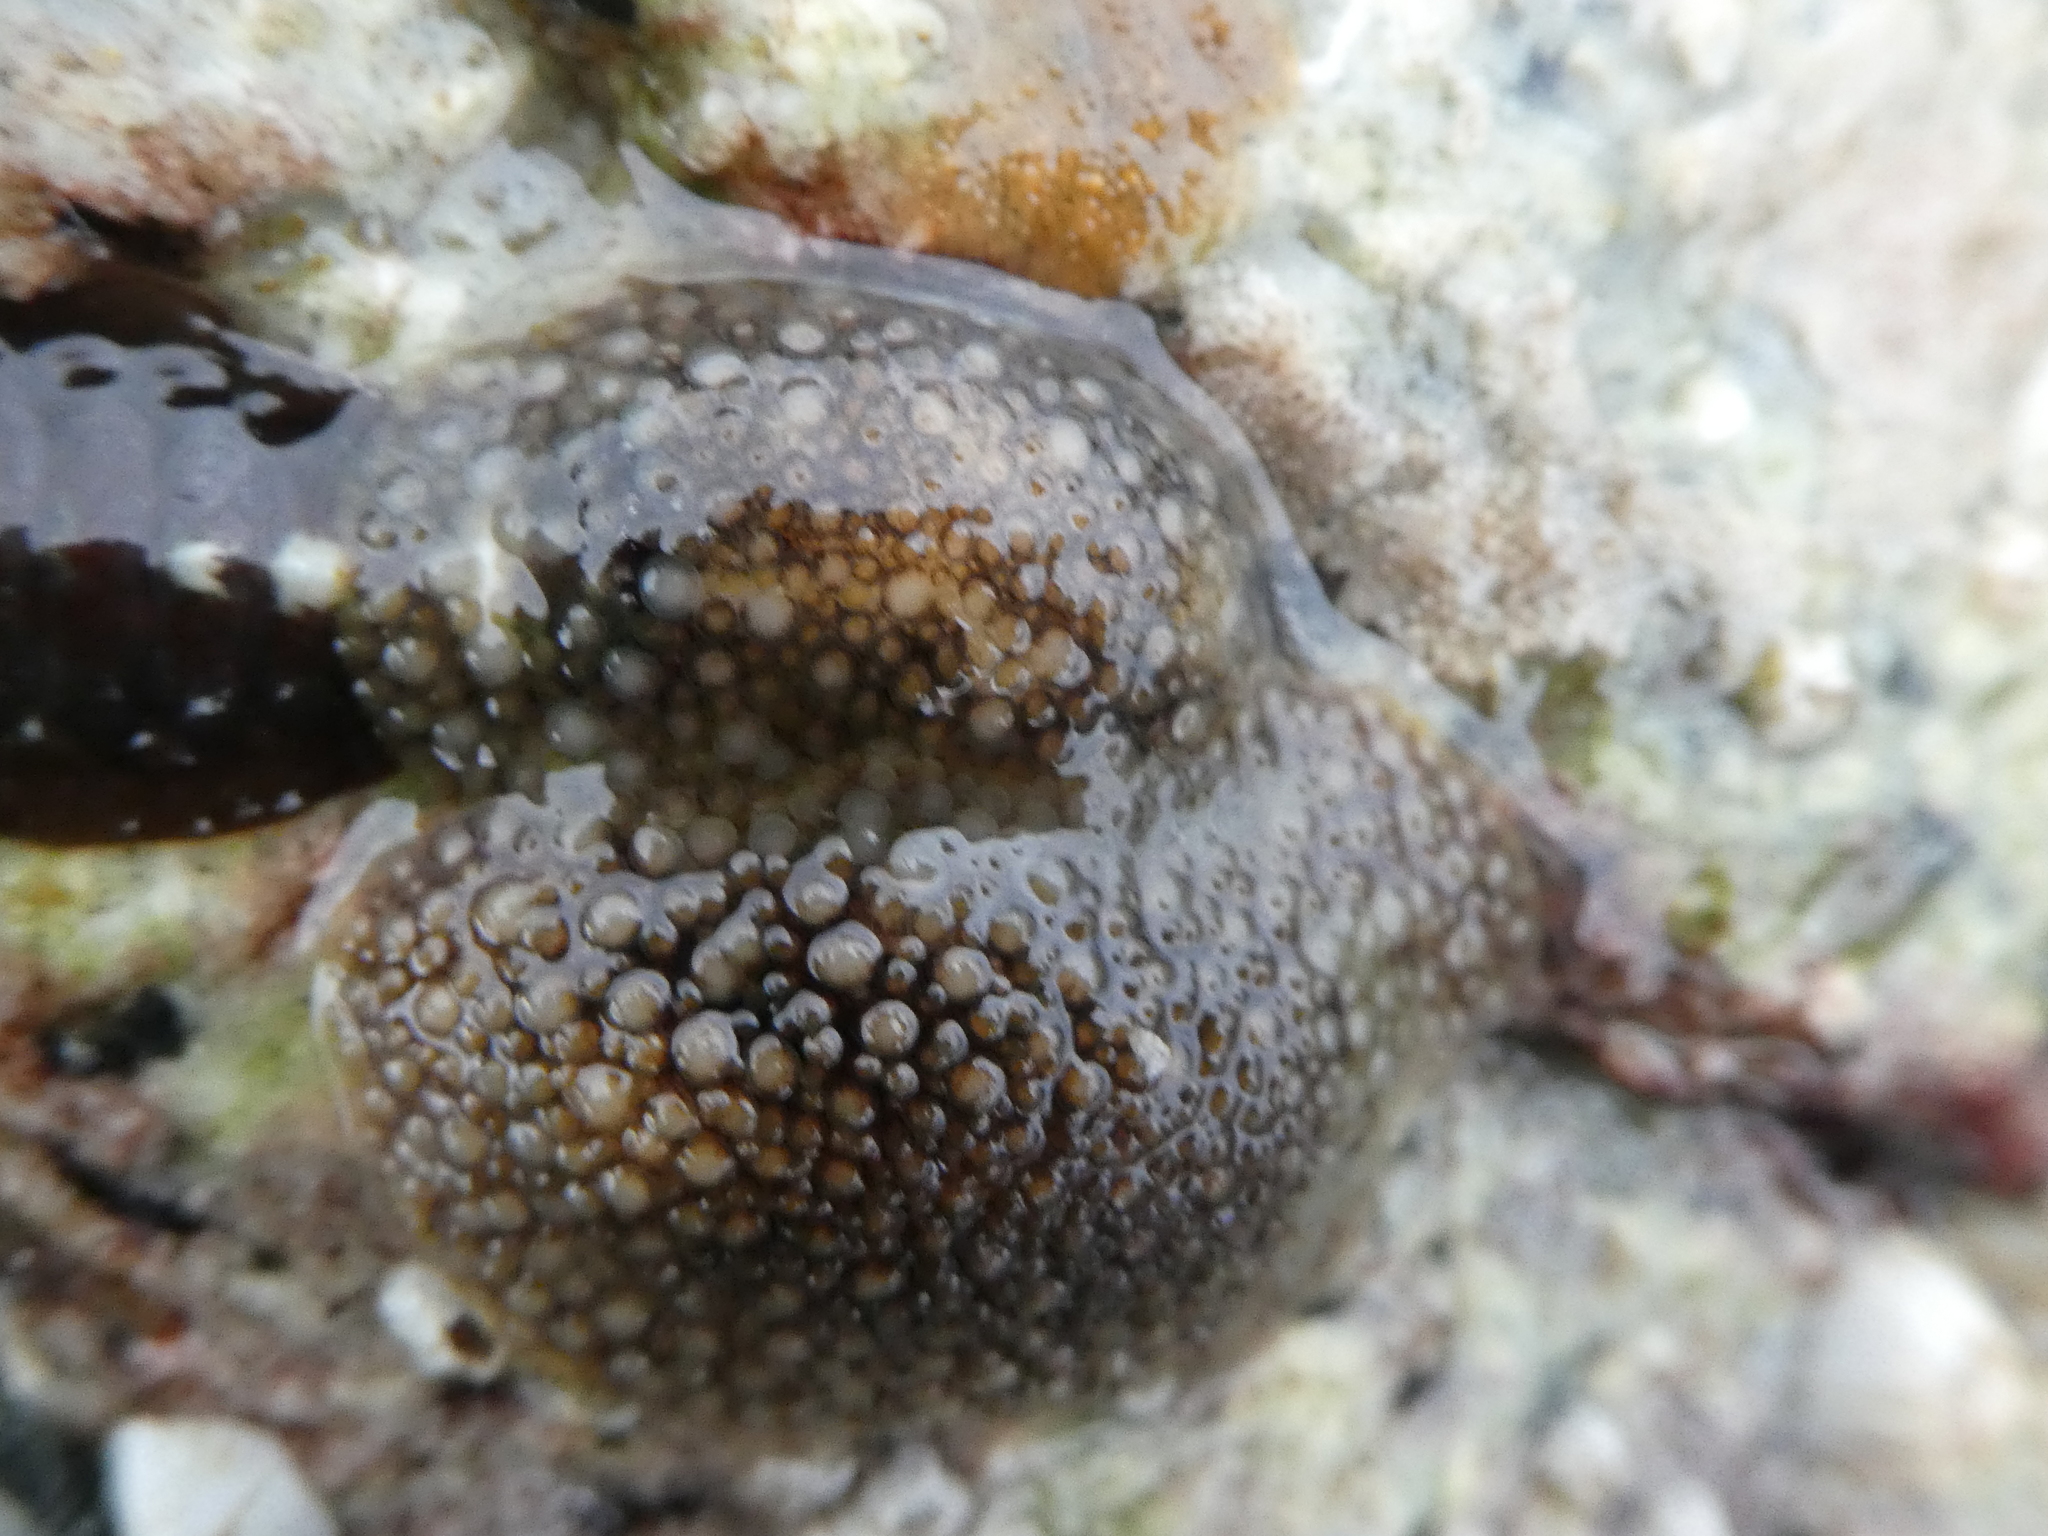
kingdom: Animalia
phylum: Mollusca
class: Gastropoda
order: Nudibranchia
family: Onchidorididae
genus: Onchidoris
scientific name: Onchidoris bilamellata
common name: Barnacle-eating onchidoris
